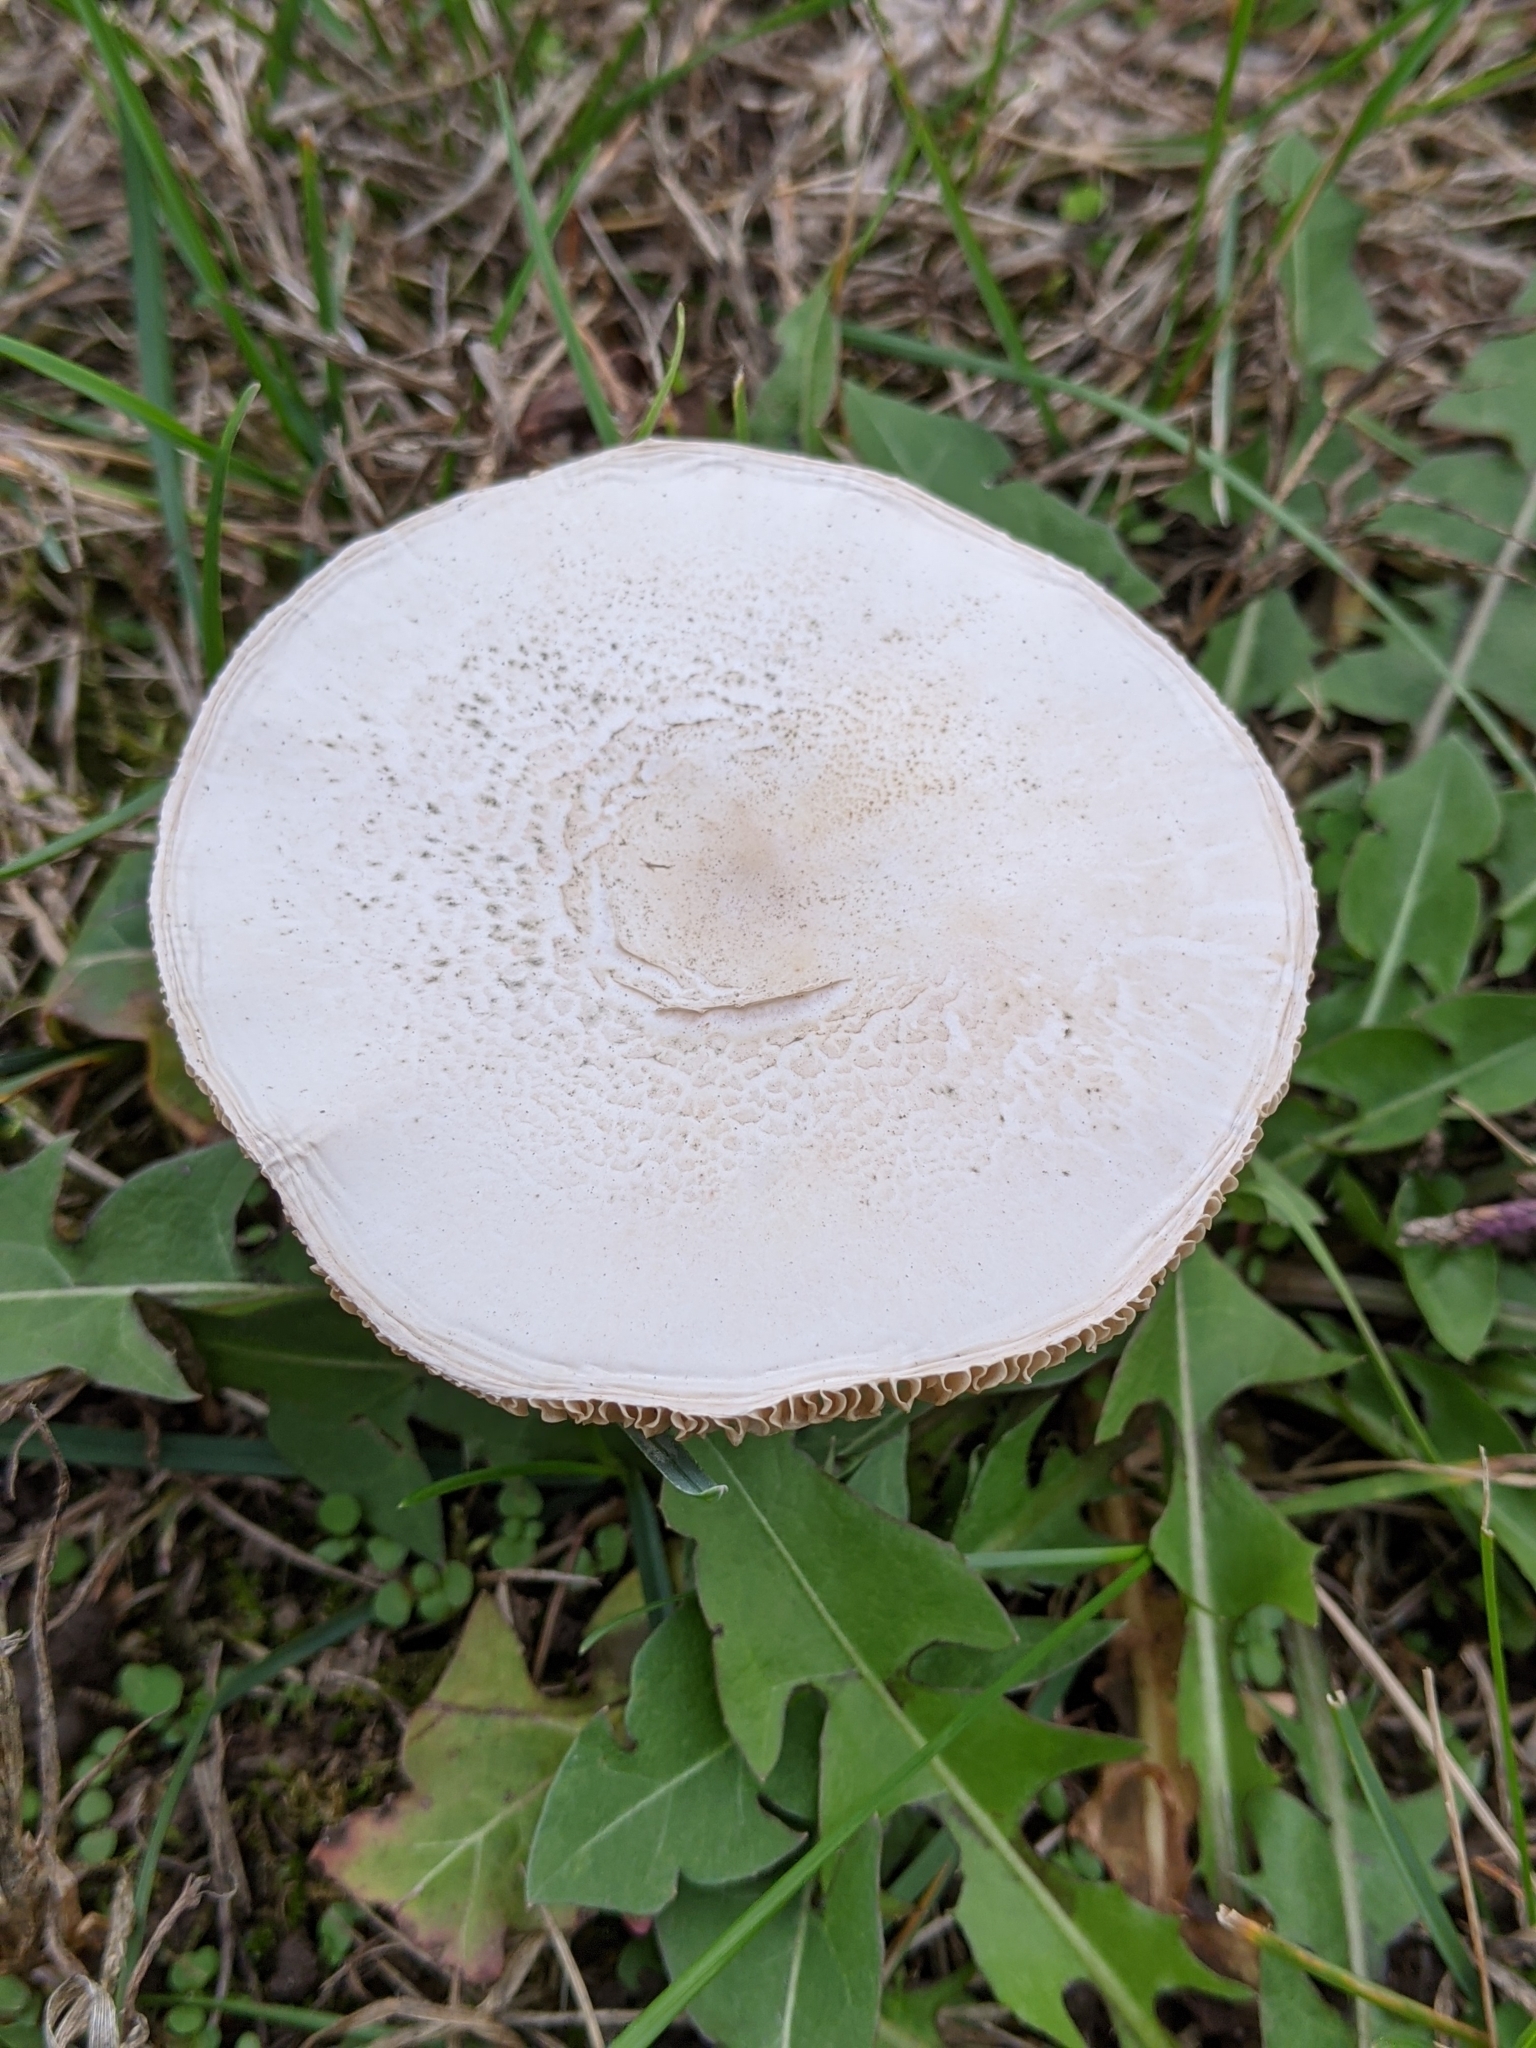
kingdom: Fungi
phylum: Basidiomycota
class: Agaricomycetes
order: Agaricales
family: Agaricaceae
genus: Leucoagaricus
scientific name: Leucoagaricus leucothites
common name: White dapperling
